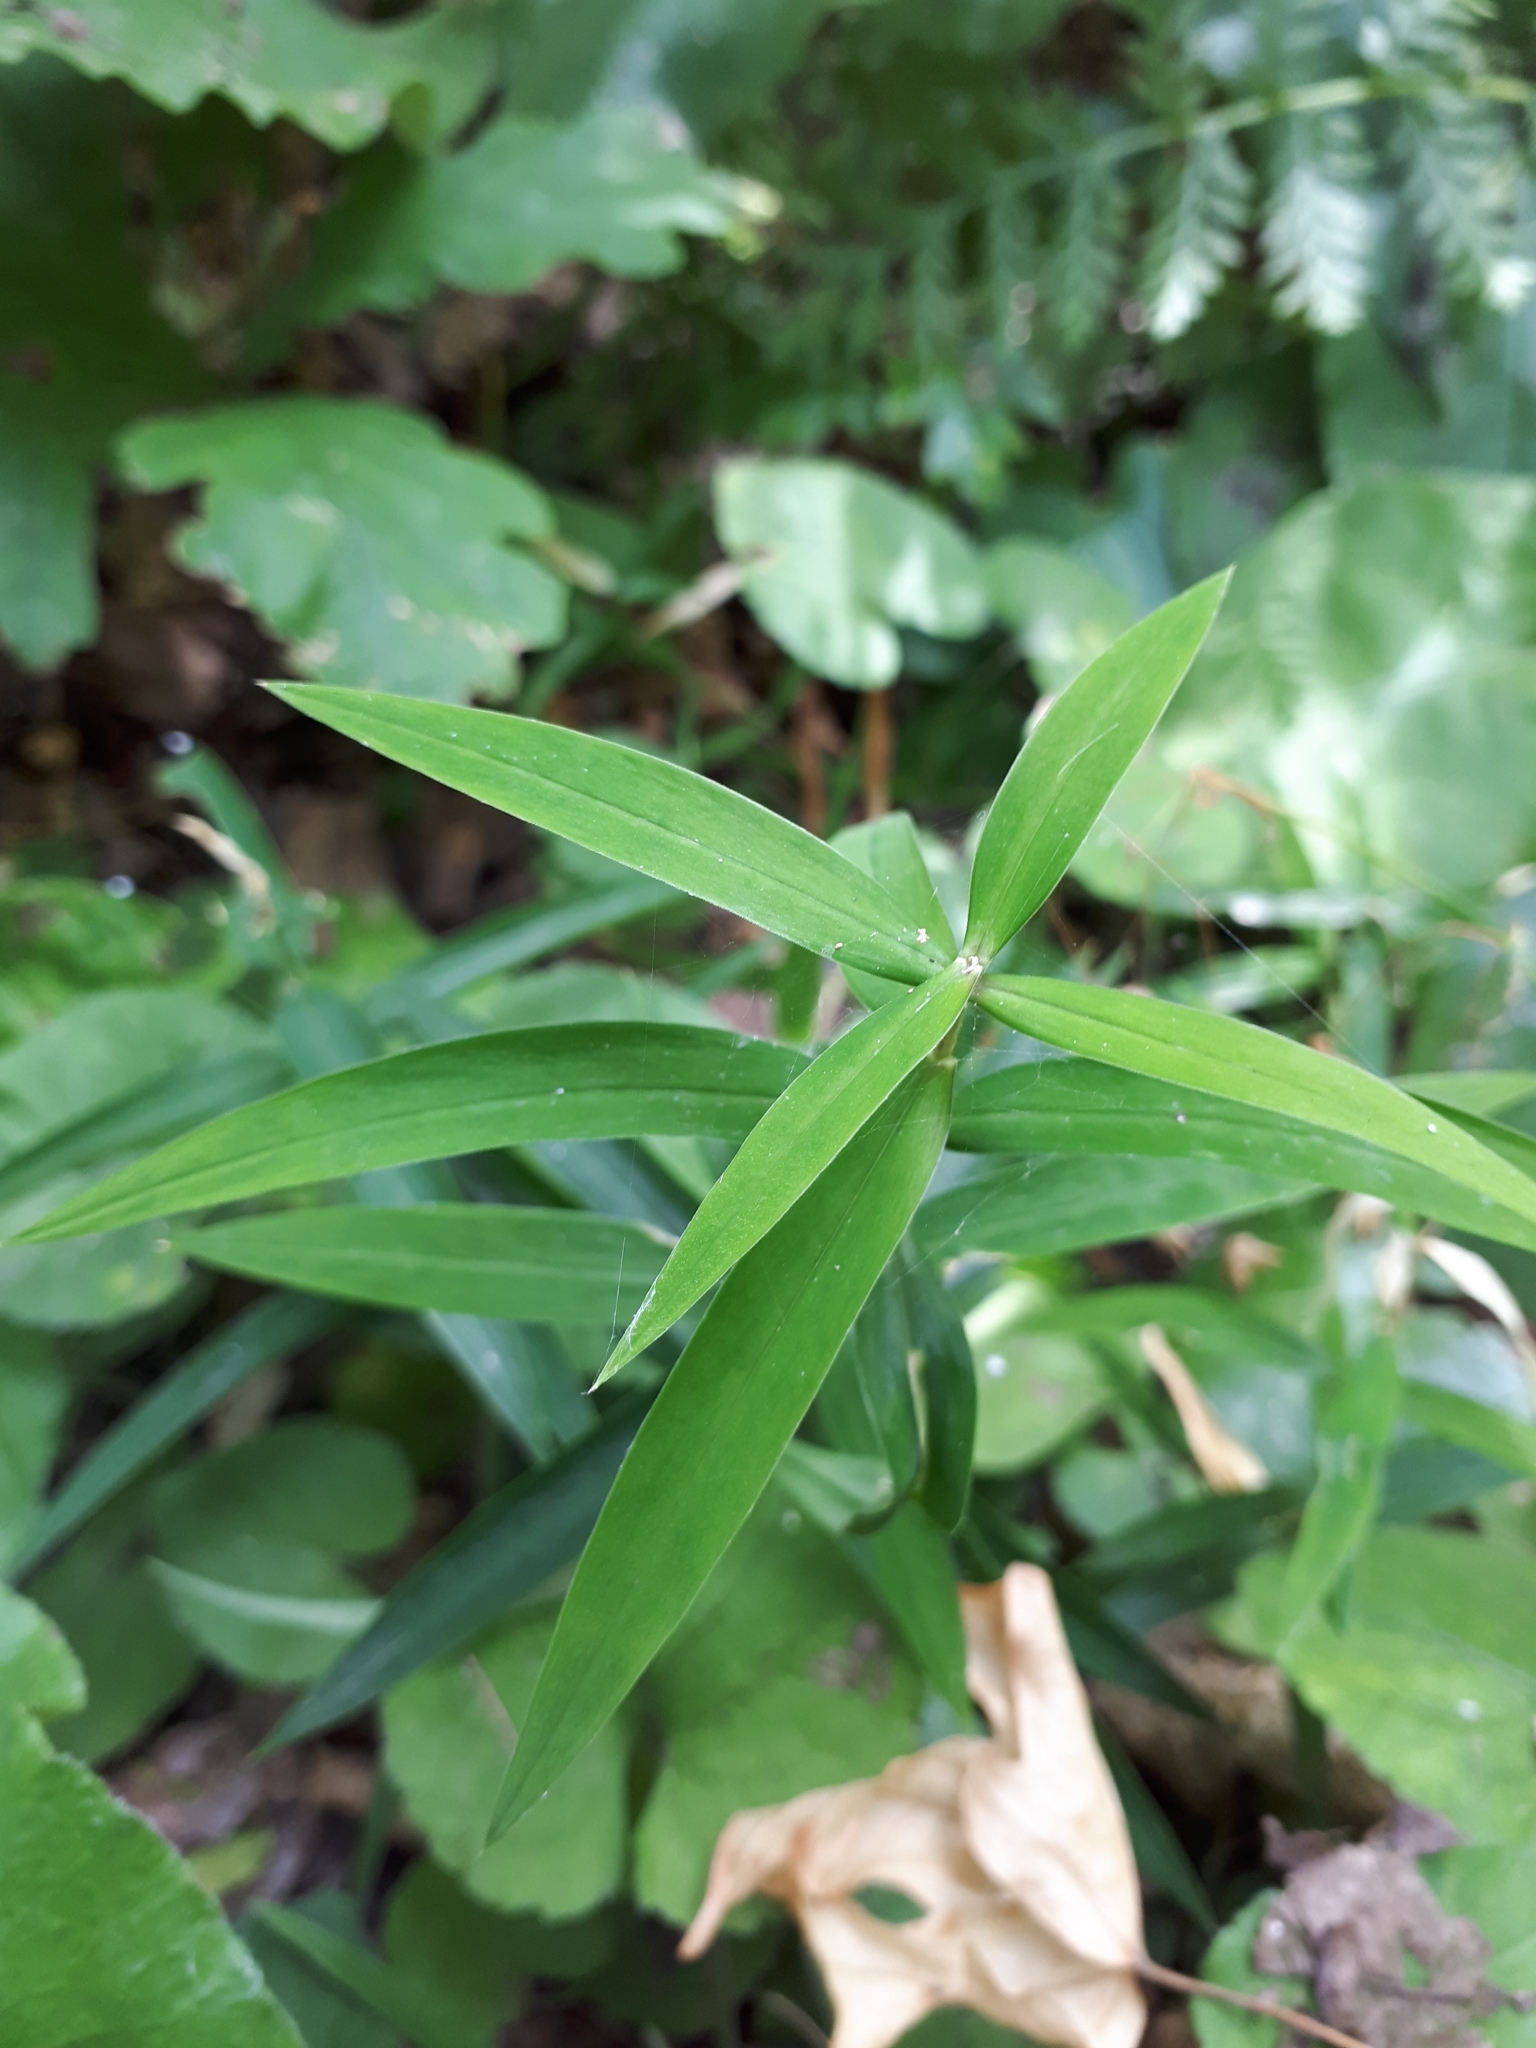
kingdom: Plantae
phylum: Tracheophyta
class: Magnoliopsida
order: Caryophyllales
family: Caryophyllaceae
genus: Rabelera
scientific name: Rabelera holostea
